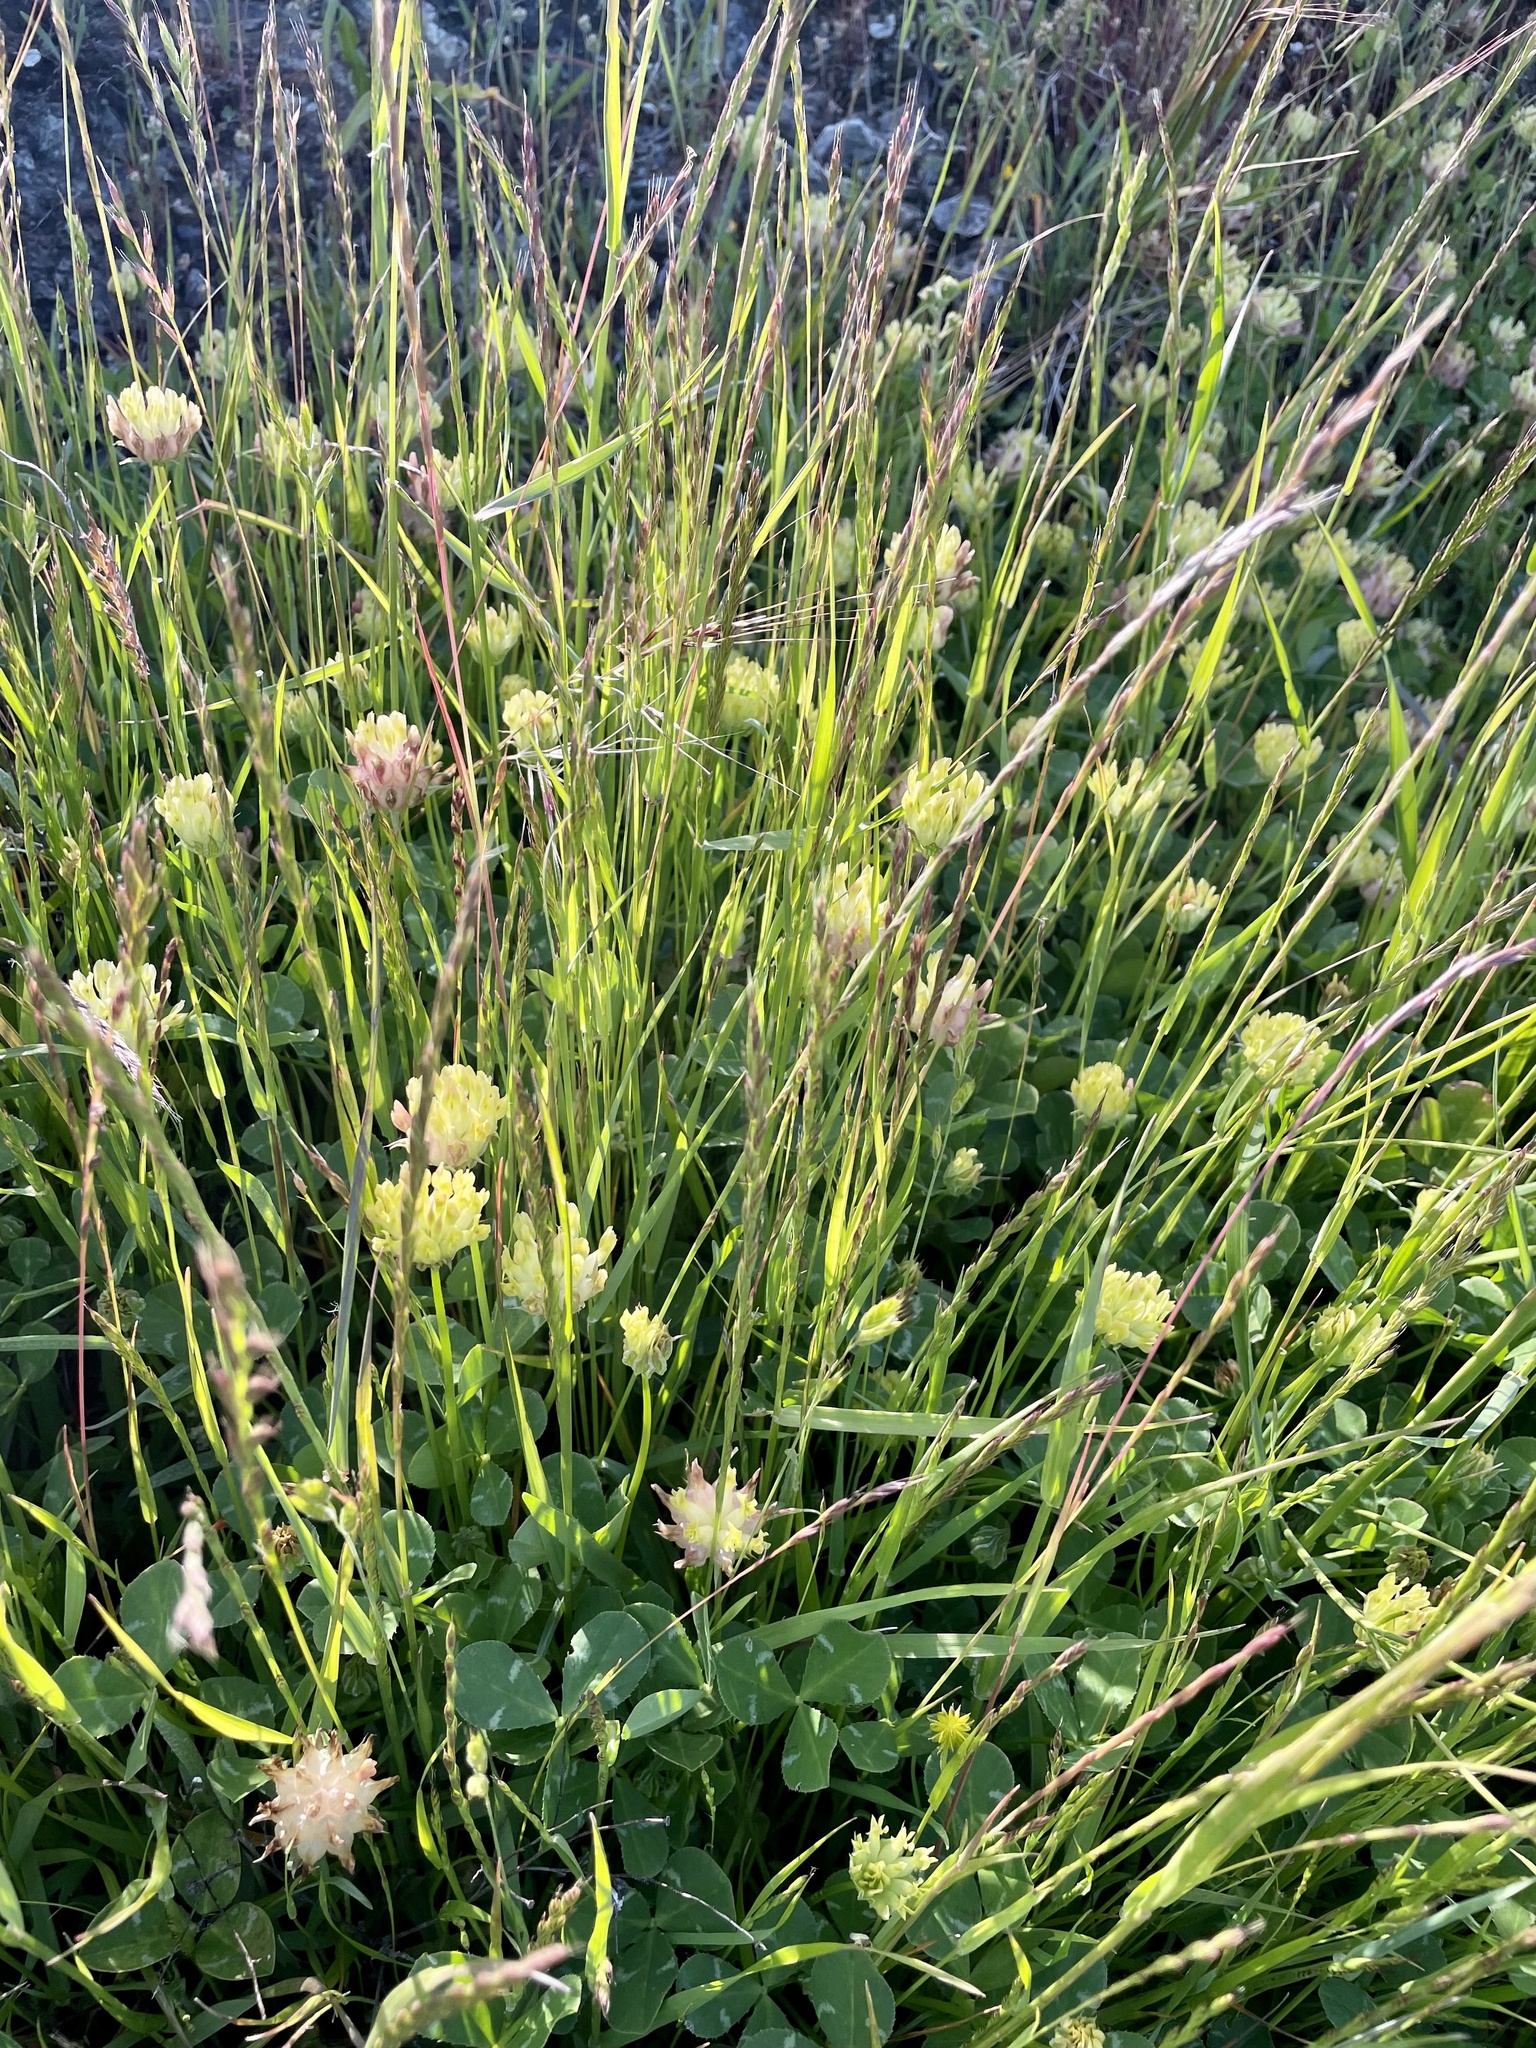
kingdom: Plantae
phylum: Tracheophyta
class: Magnoliopsida
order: Fabales
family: Fabaceae
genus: Trifolium
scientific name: Trifolium fucatum
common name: Puff clover
